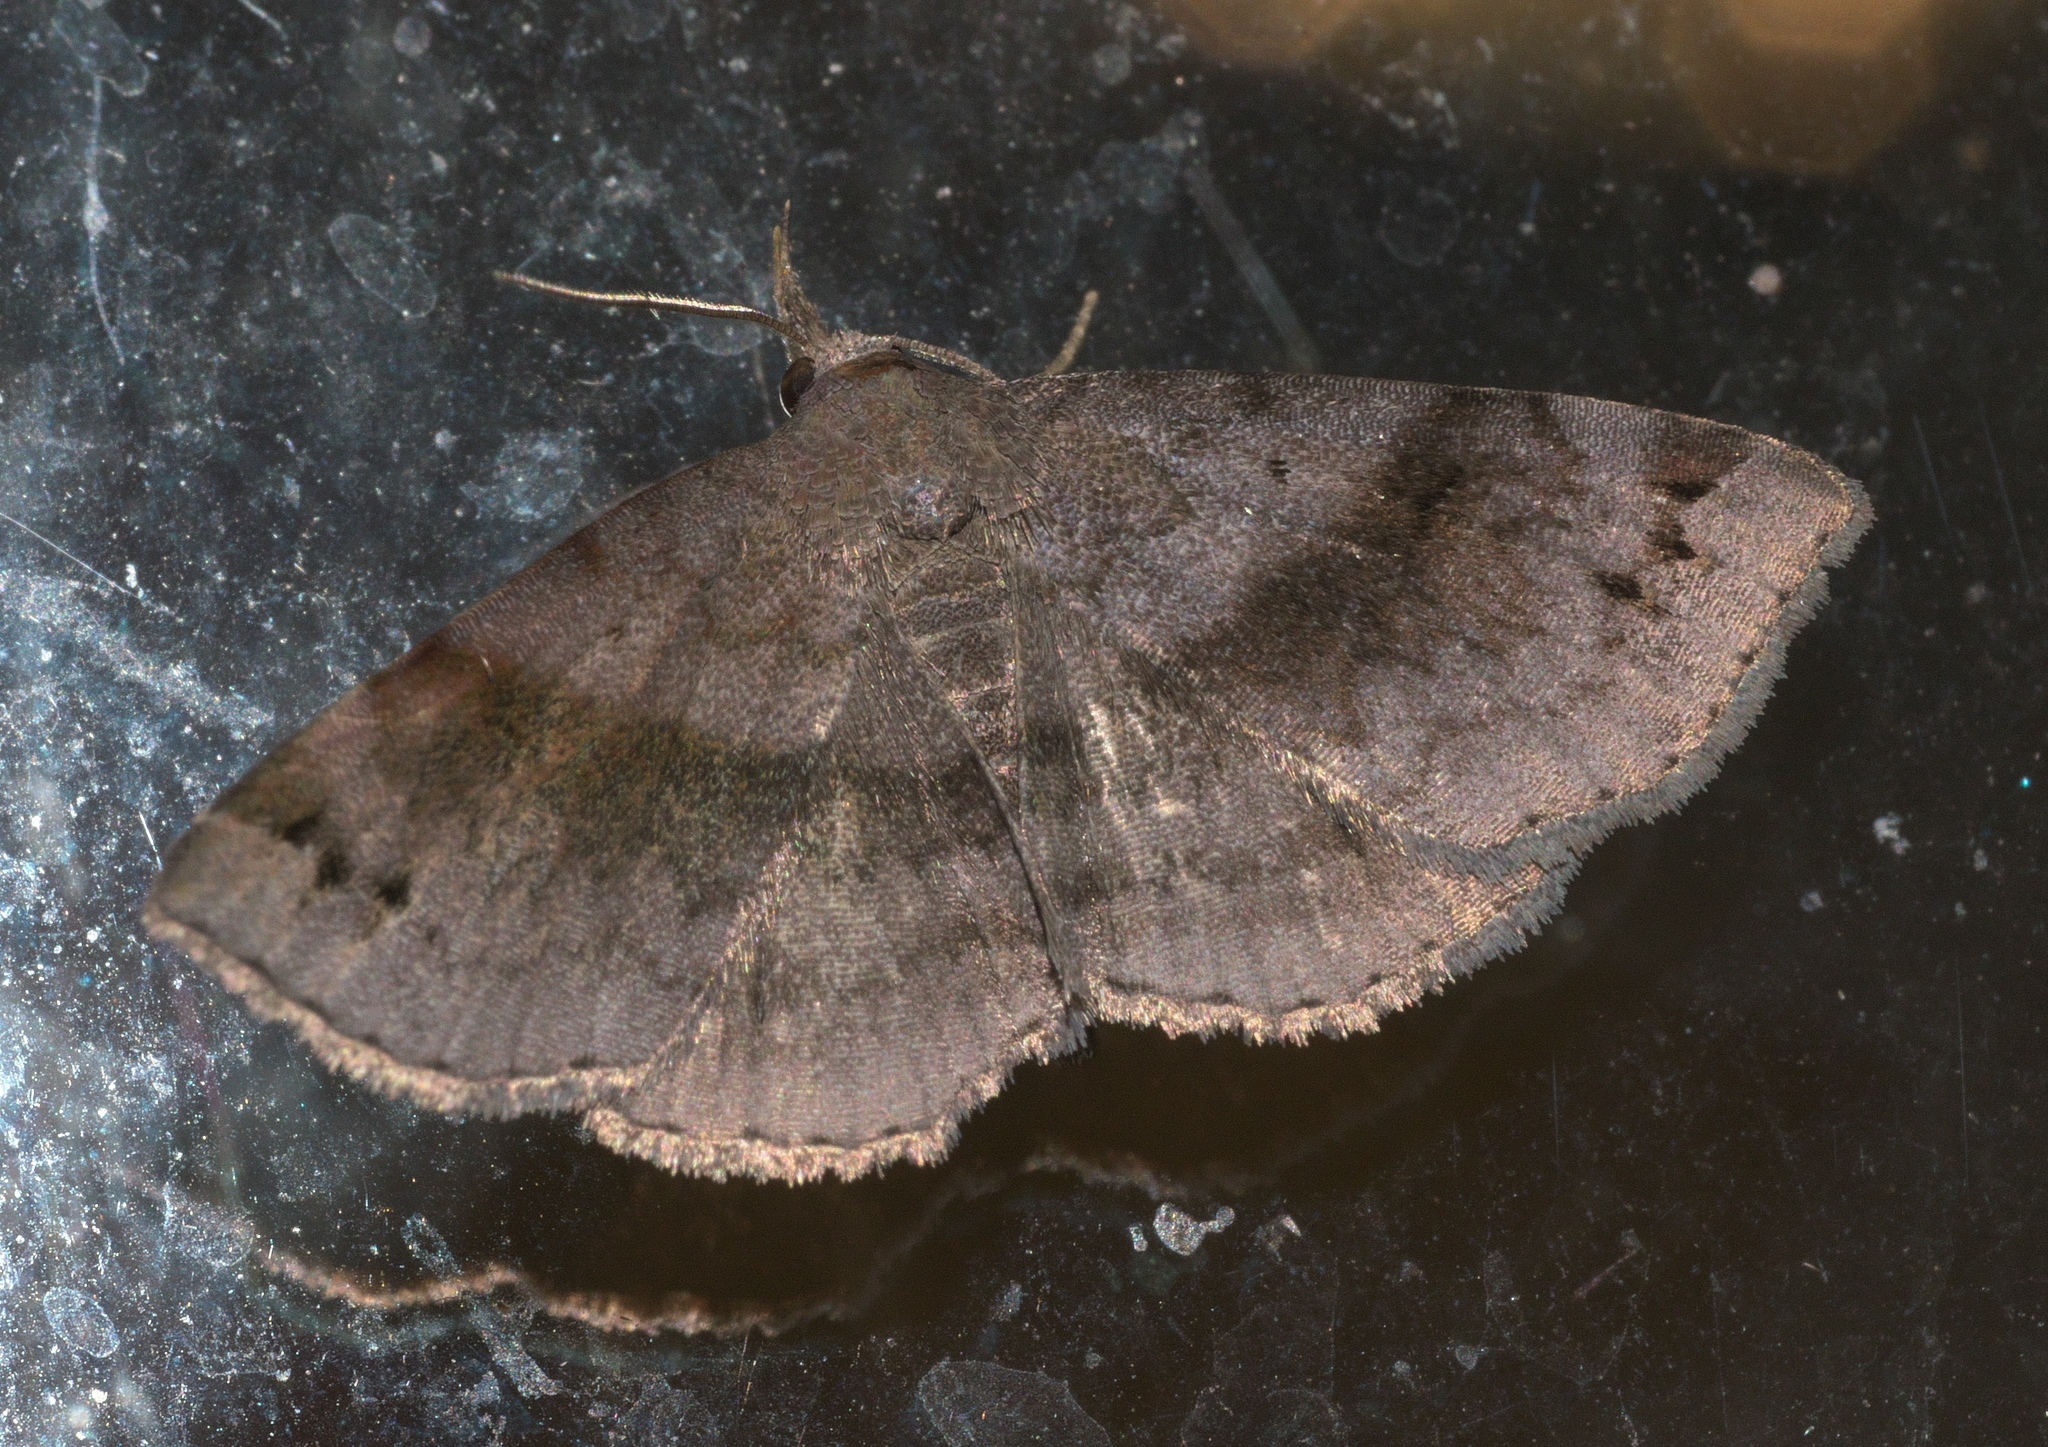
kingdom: Animalia
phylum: Arthropoda
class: Insecta
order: Lepidoptera
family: Erebidae
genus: Spargaloma
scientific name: Spargaloma sexpunctata
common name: Six-spotted gray
